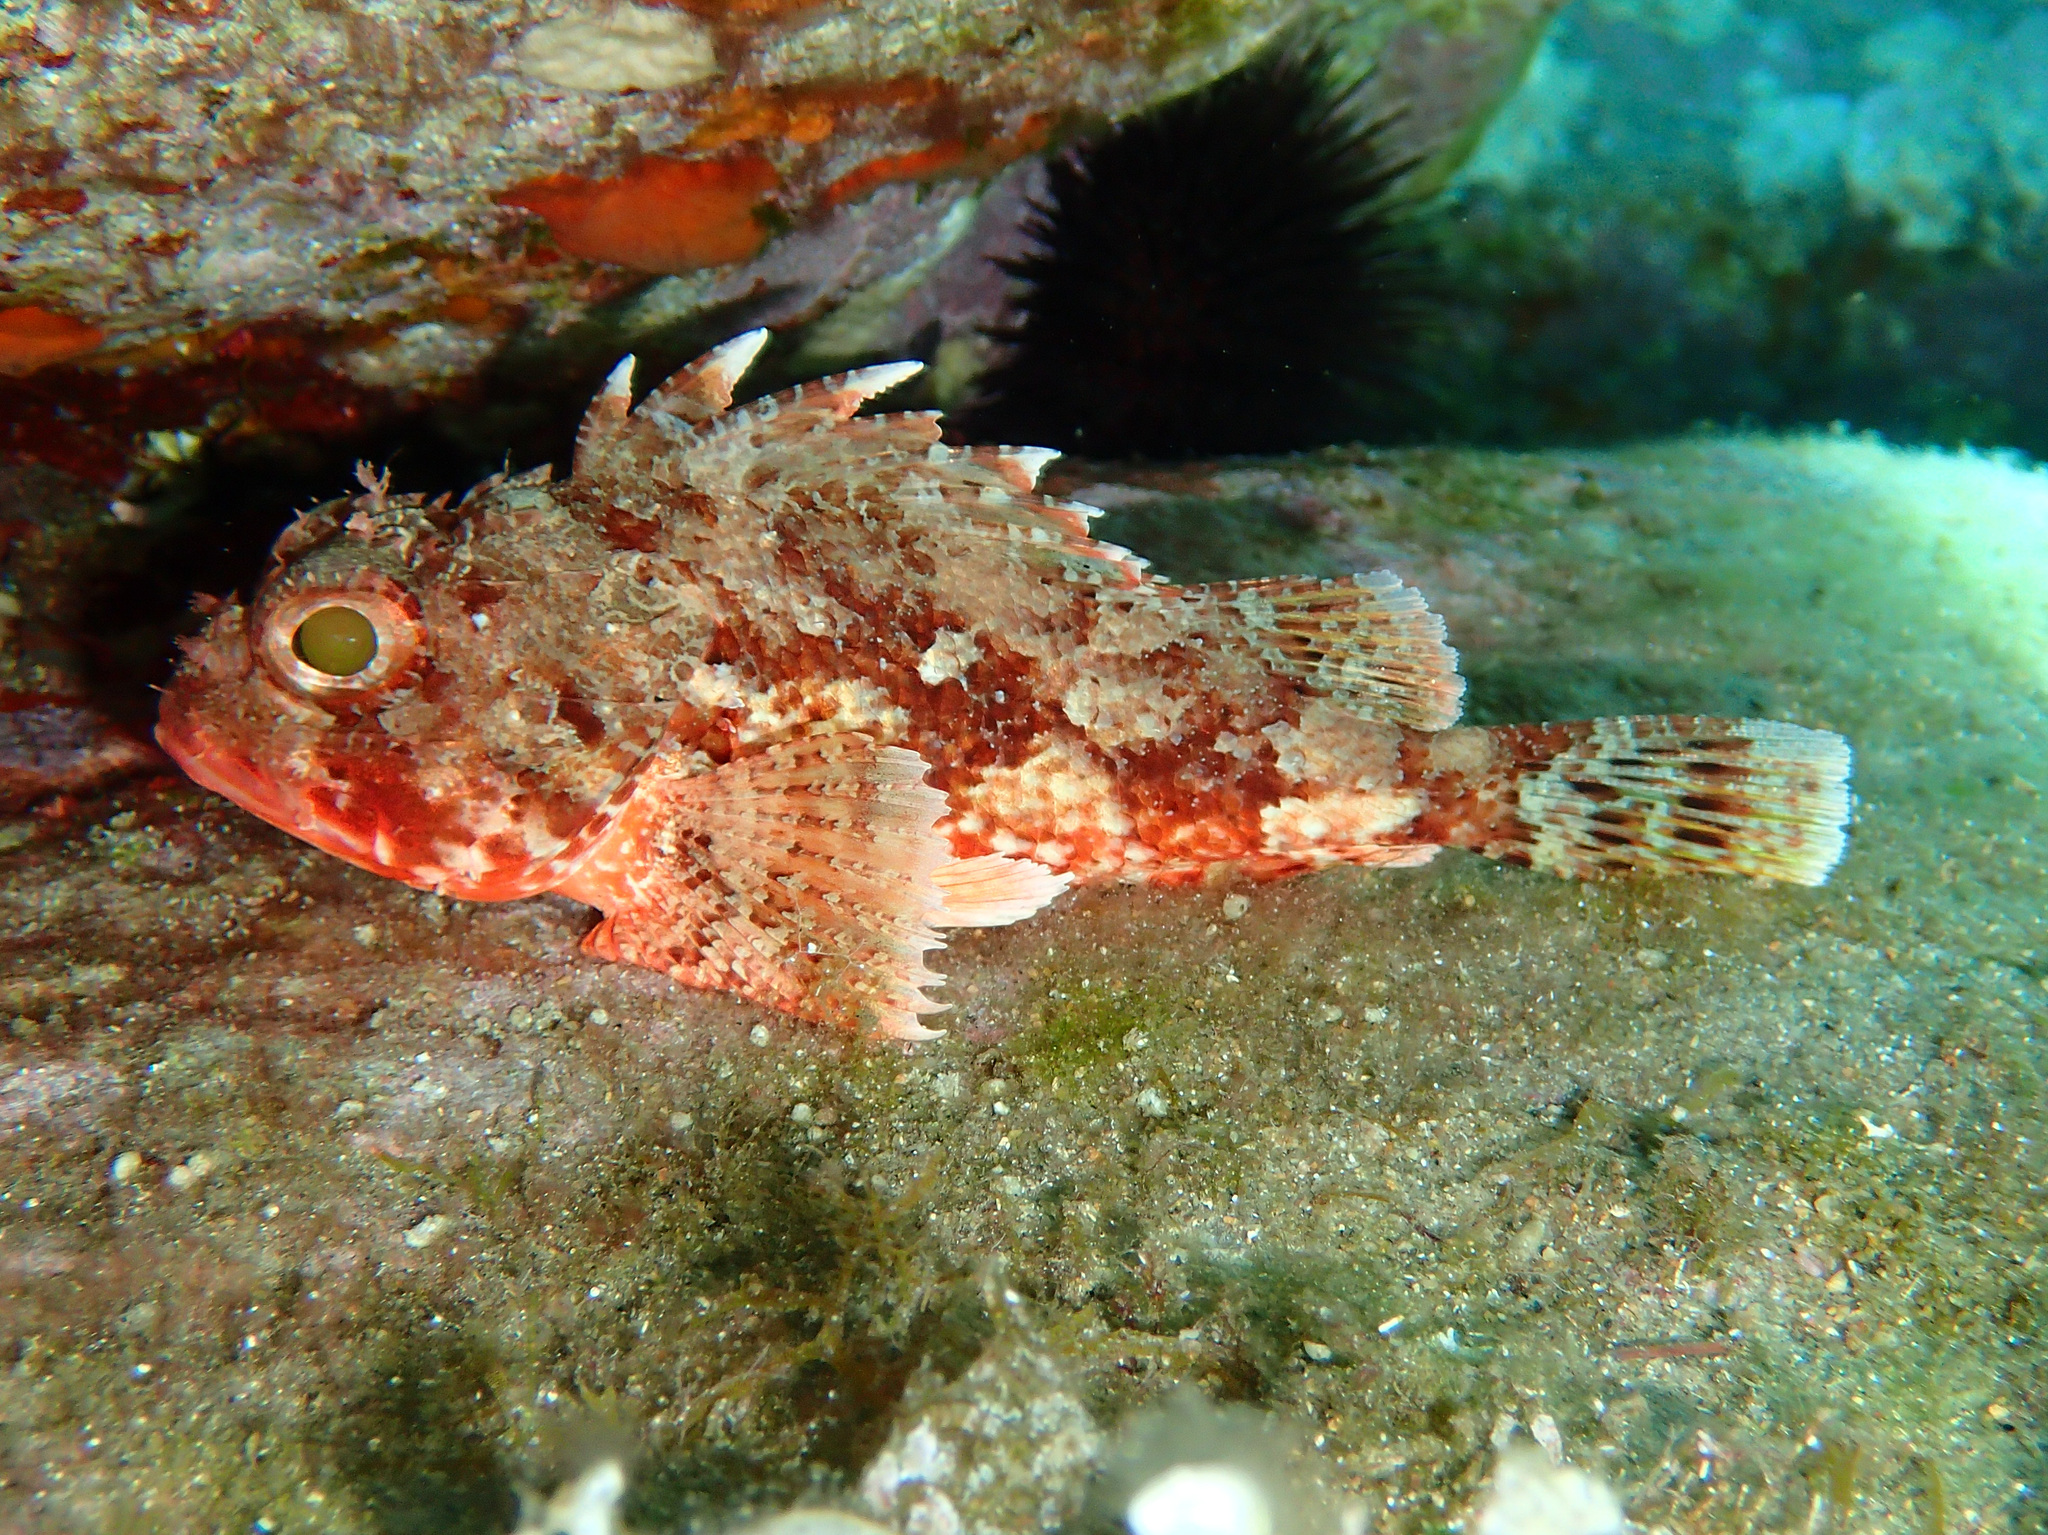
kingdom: Animalia
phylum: Chordata
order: Scorpaeniformes
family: Scorpaenidae
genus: Scorpaena
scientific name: Scorpaena notata
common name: Small red scorpionfish
